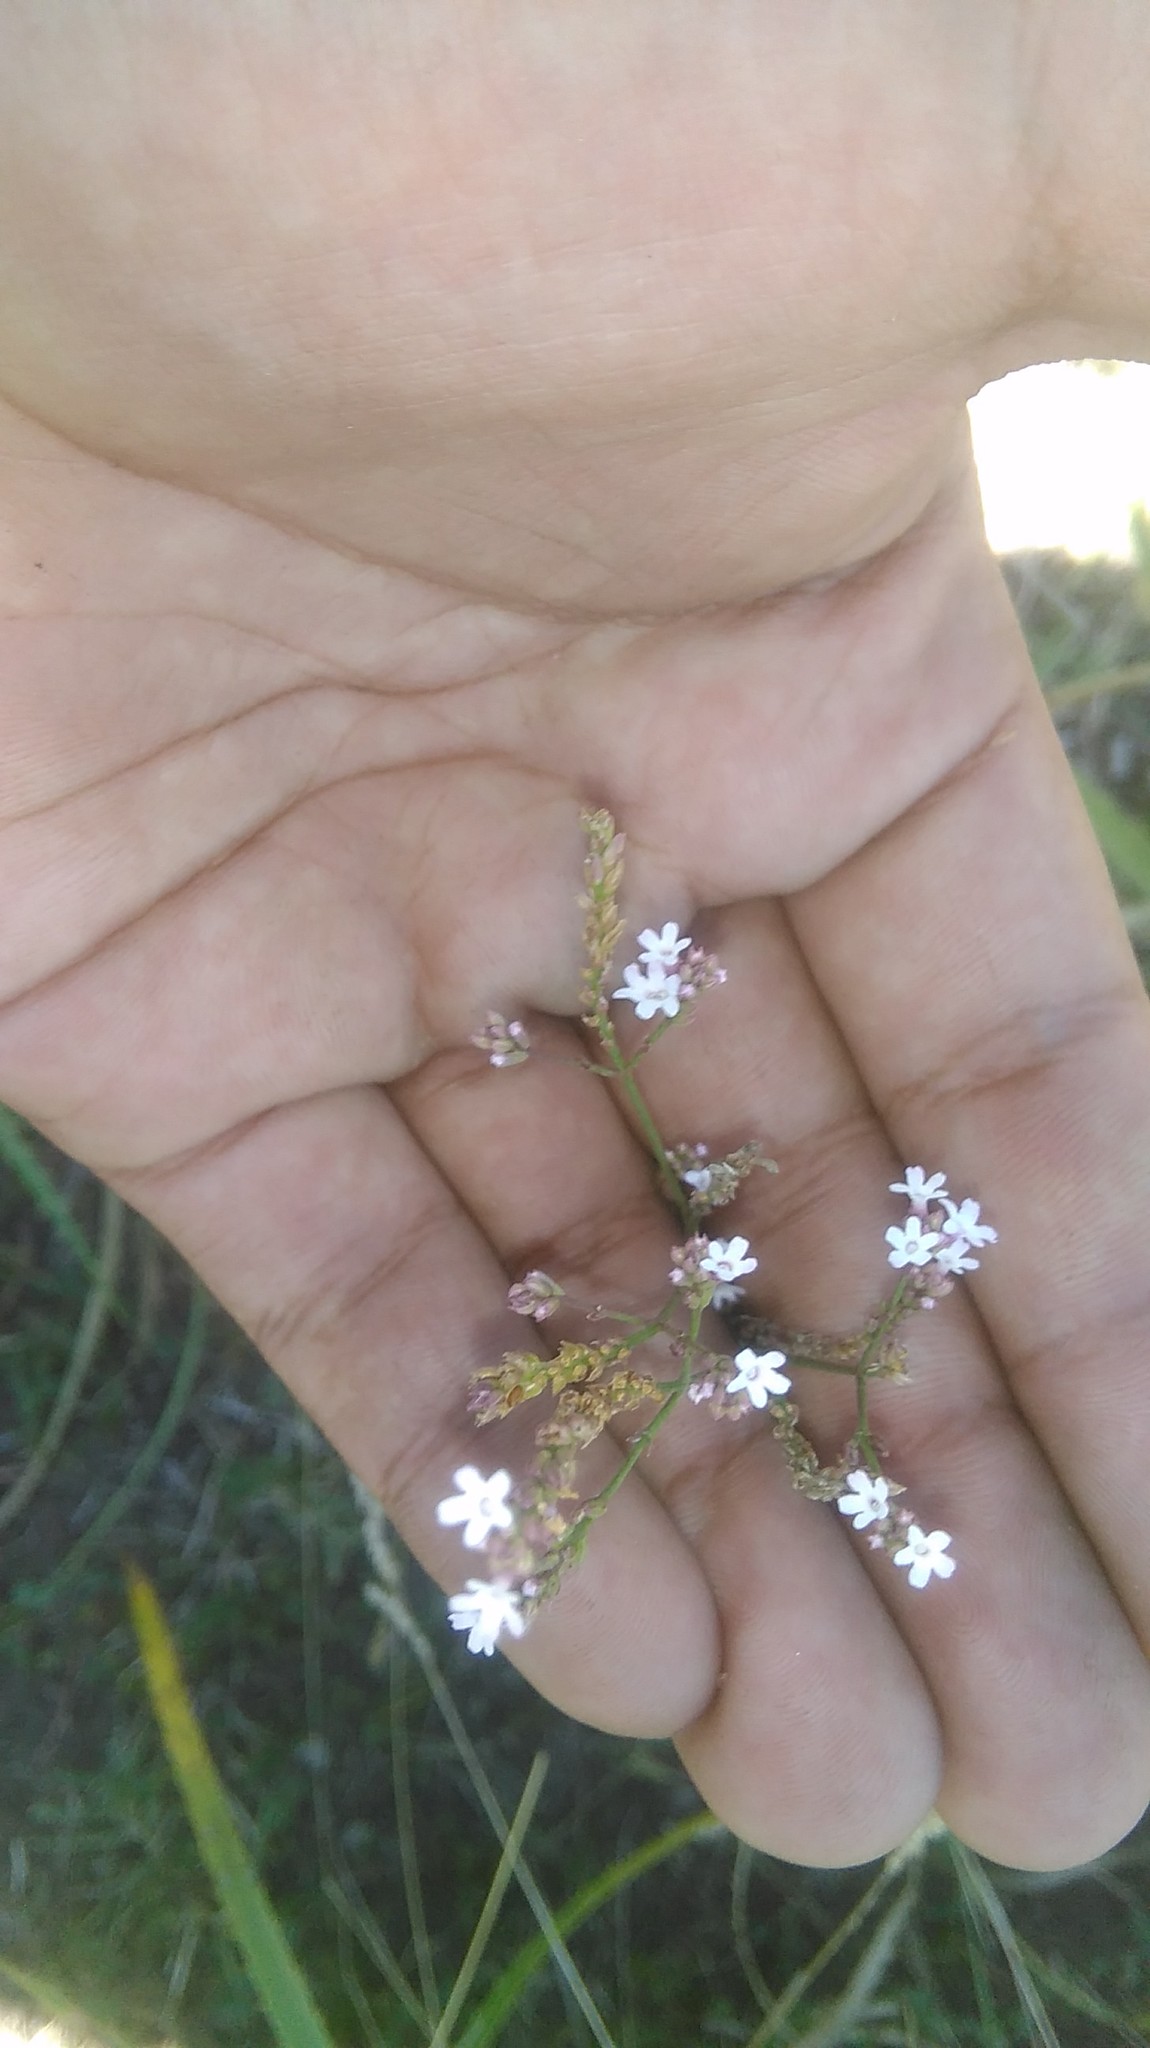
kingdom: Plantae
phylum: Tracheophyta
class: Magnoliopsida
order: Lamiales
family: Verbenaceae
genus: Verbena
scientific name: Verbena montevidensis
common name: Uruguayan vervain
